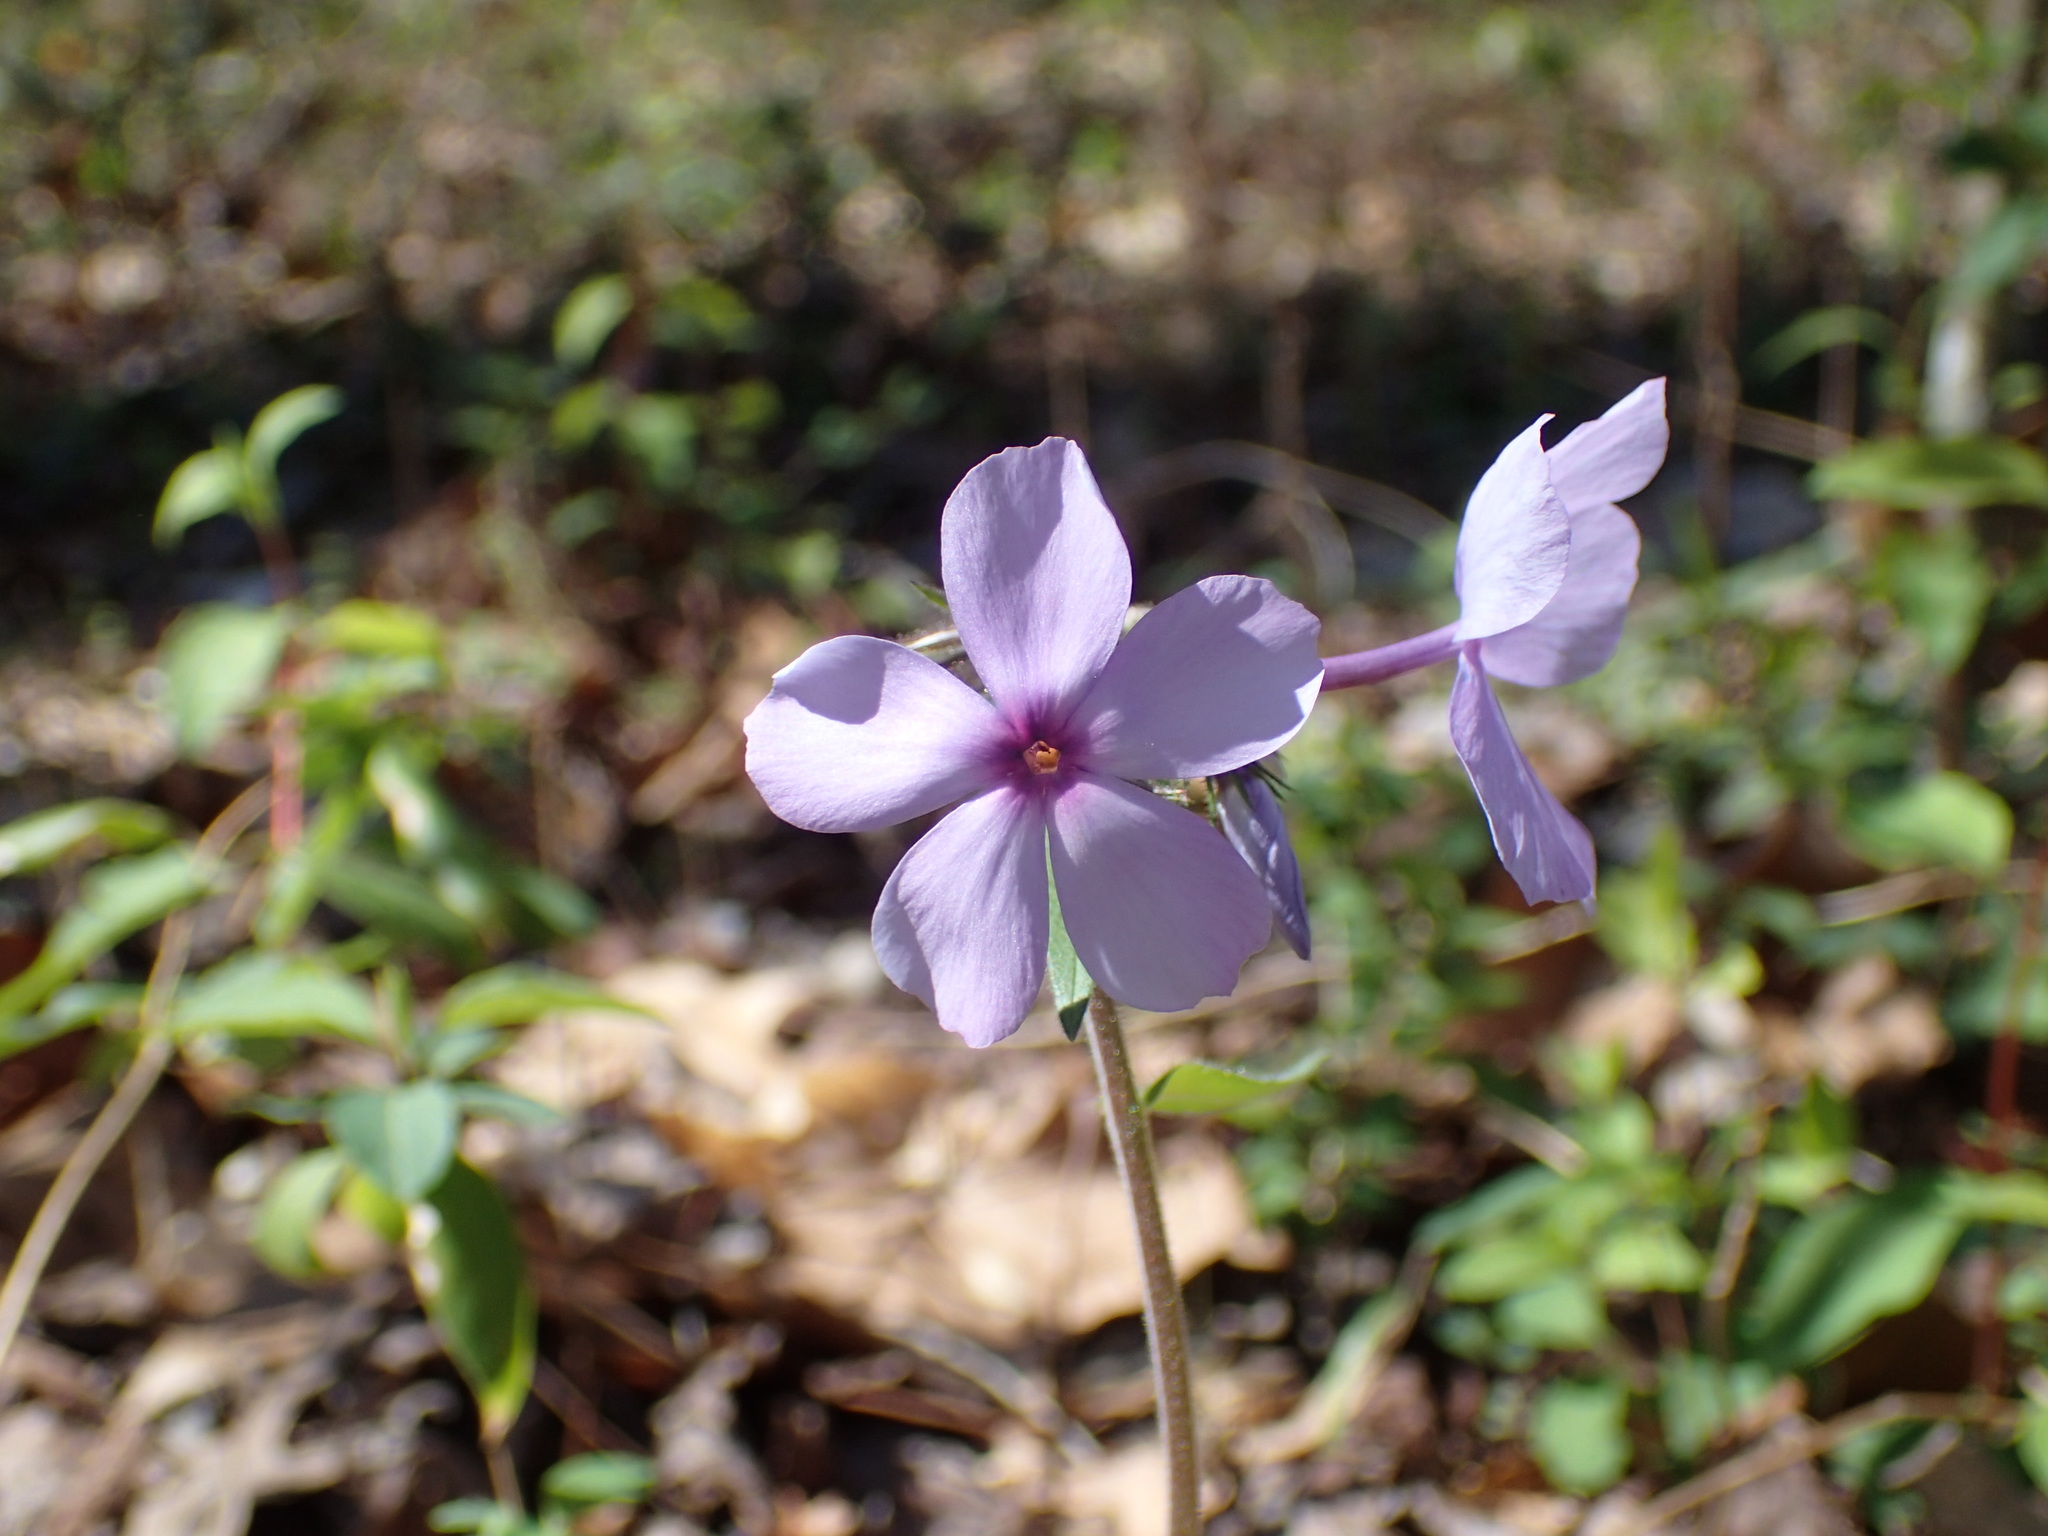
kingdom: Plantae
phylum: Tracheophyta
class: Magnoliopsida
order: Ericales
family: Polemoniaceae
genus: Phlox
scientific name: Phlox divaricata
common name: Blue phlox
